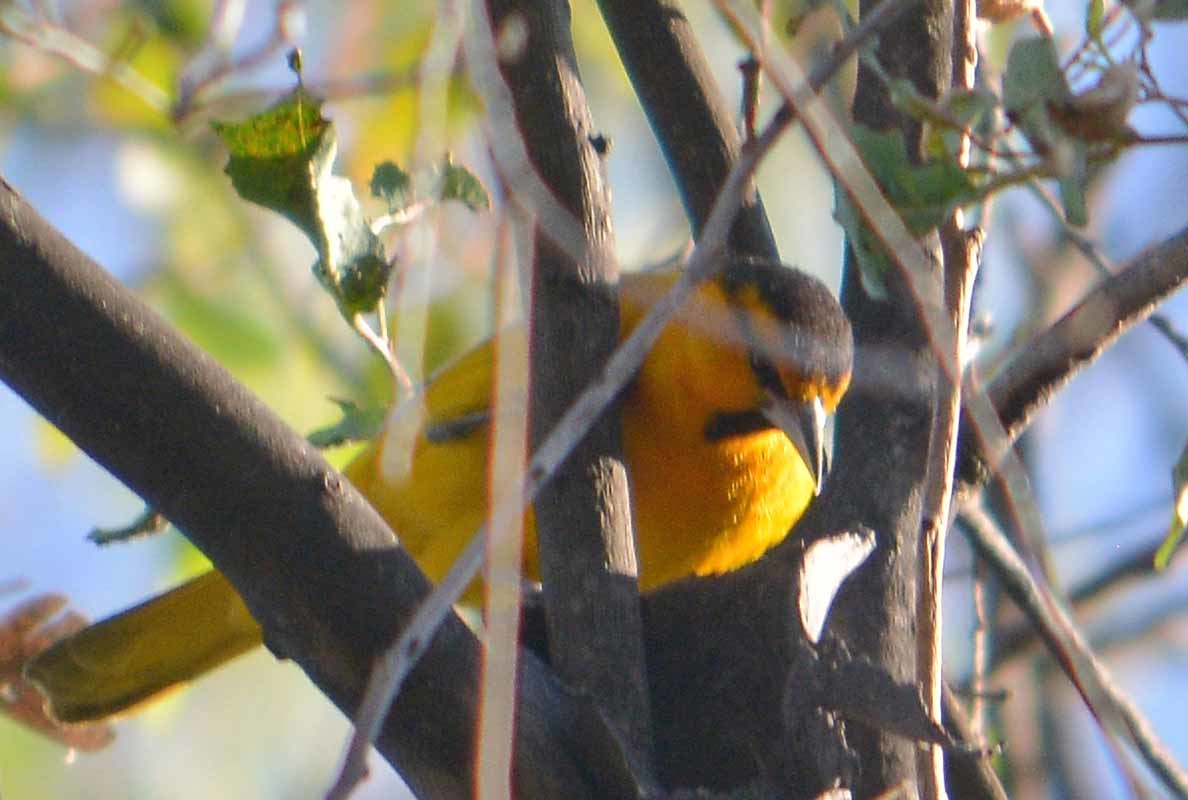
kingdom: Animalia
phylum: Chordata
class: Aves
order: Passeriformes
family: Icteridae
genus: Icterus
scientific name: Icterus bullockii
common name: Bullock's oriole
